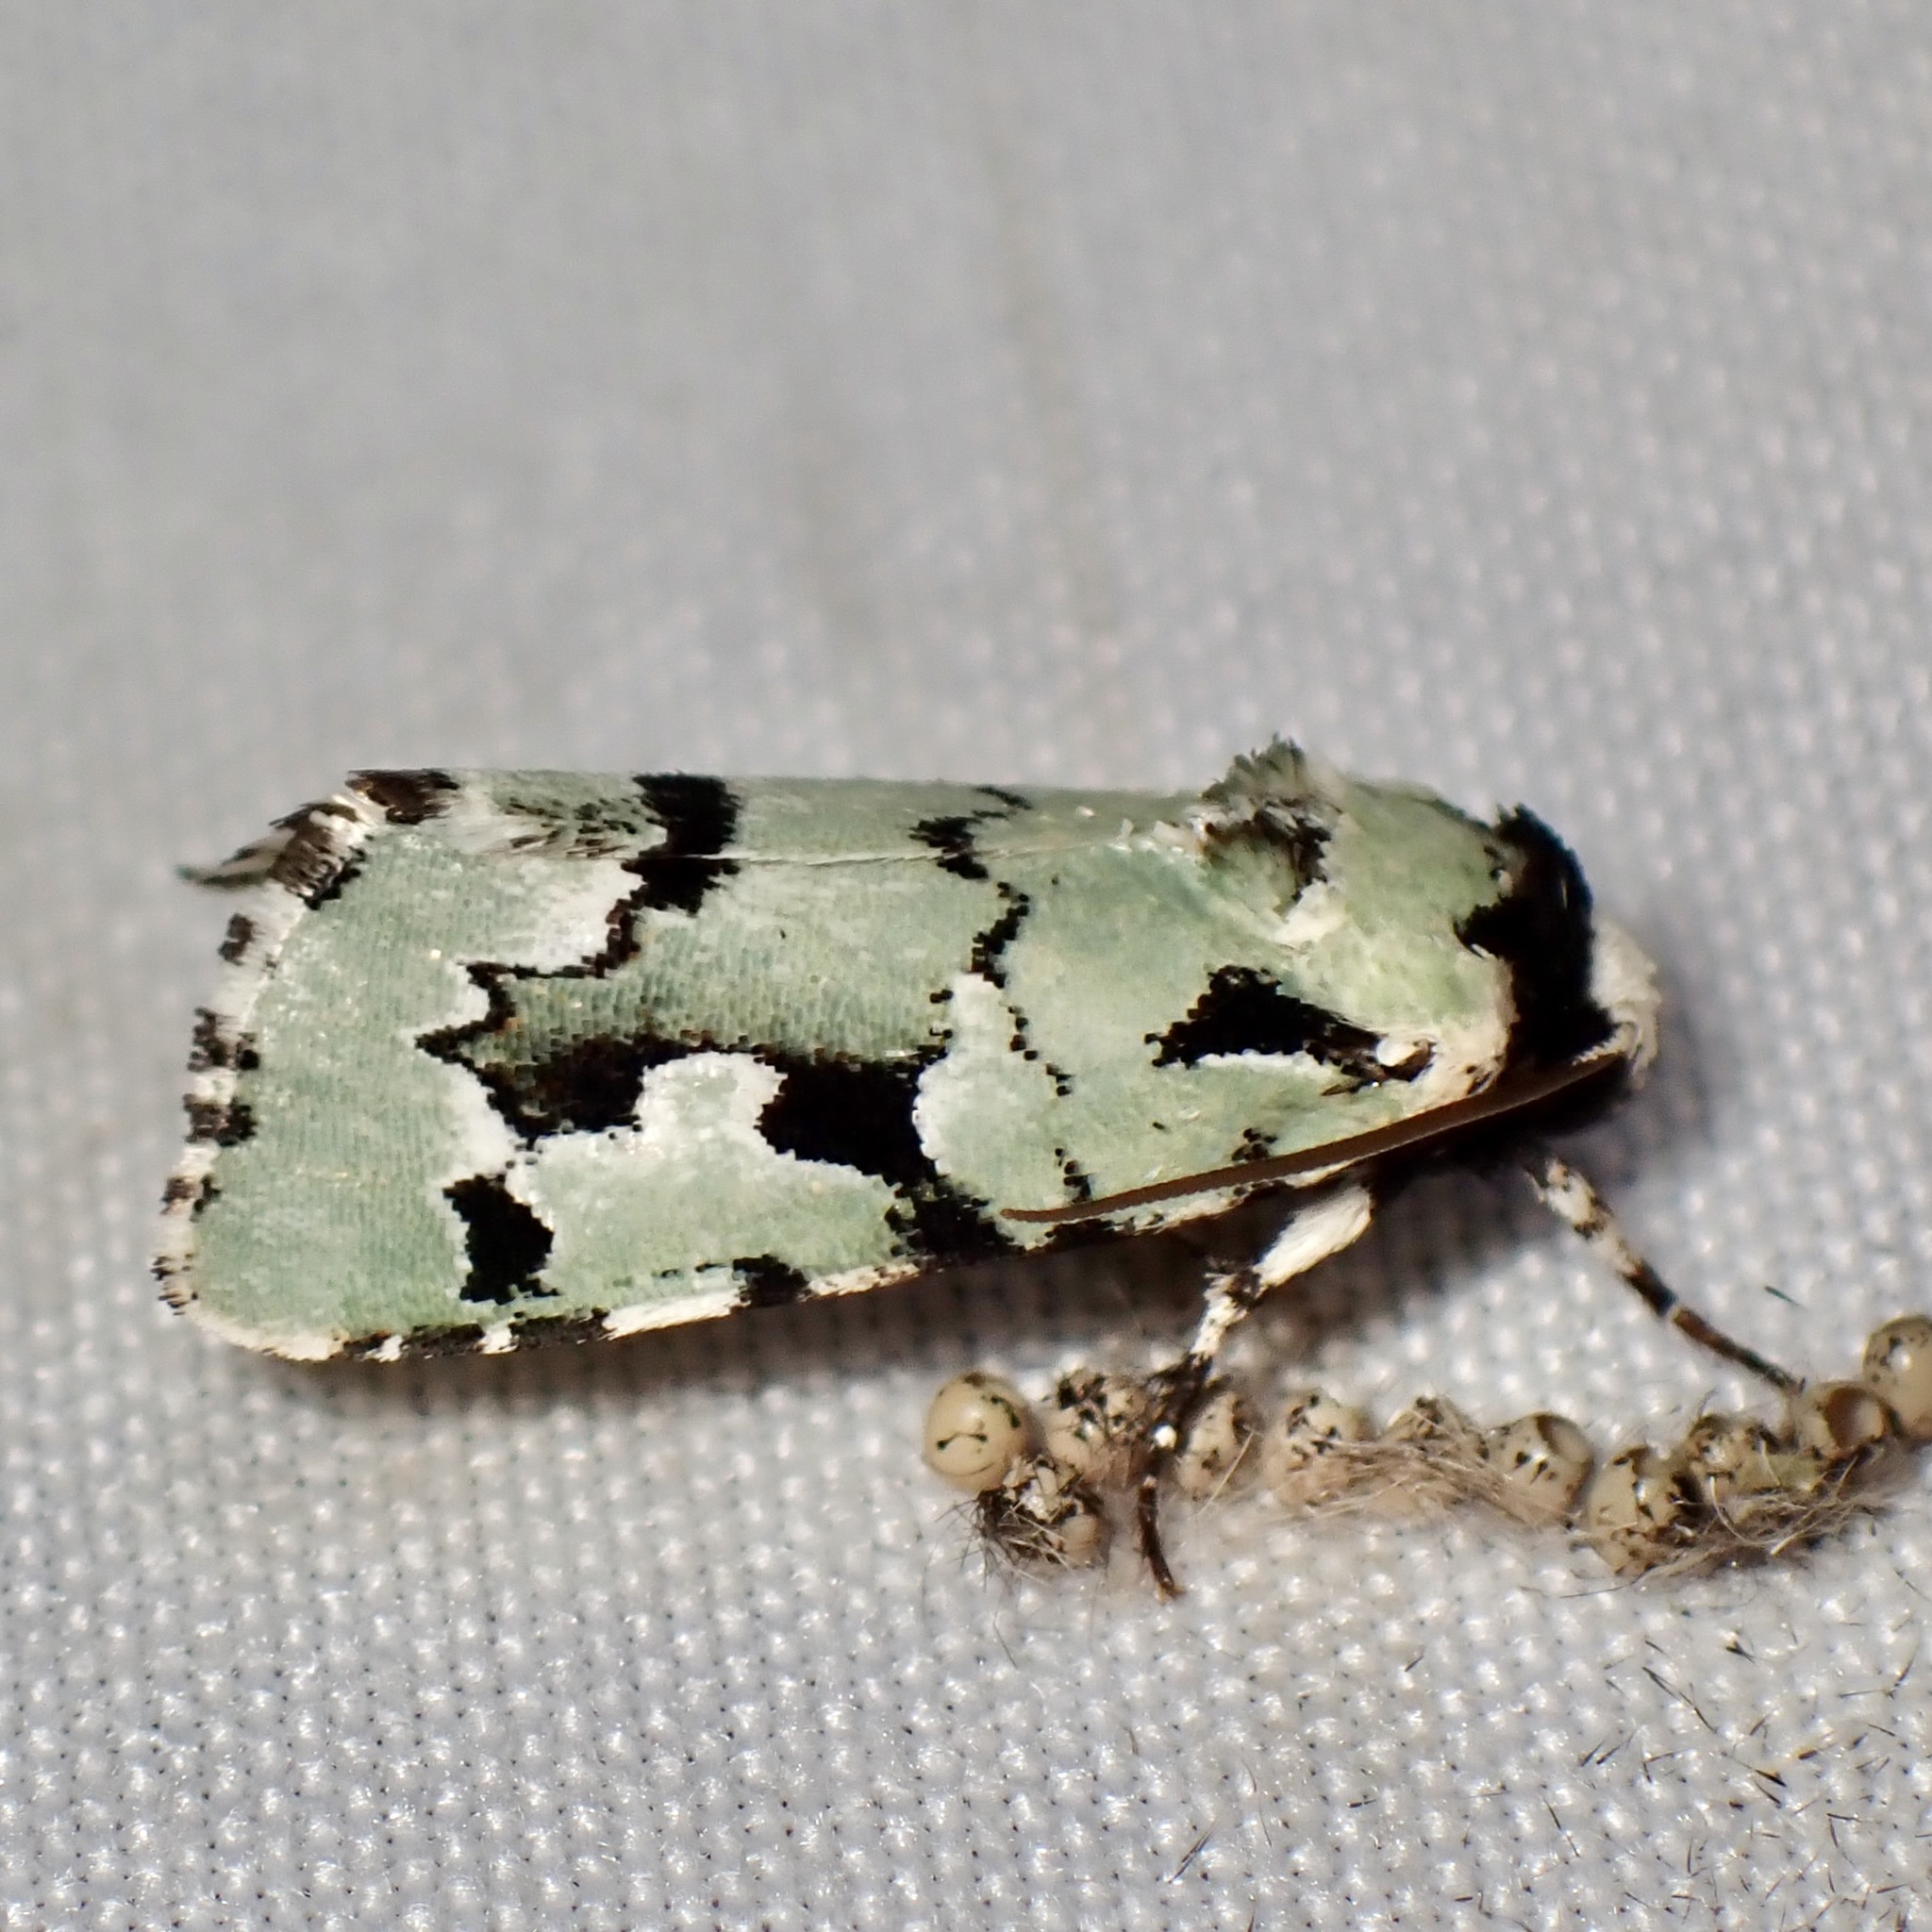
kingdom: Animalia
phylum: Arthropoda
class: Insecta
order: Lepidoptera
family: Noctuidae
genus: Emarginea
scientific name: Emarginea dulcinea
